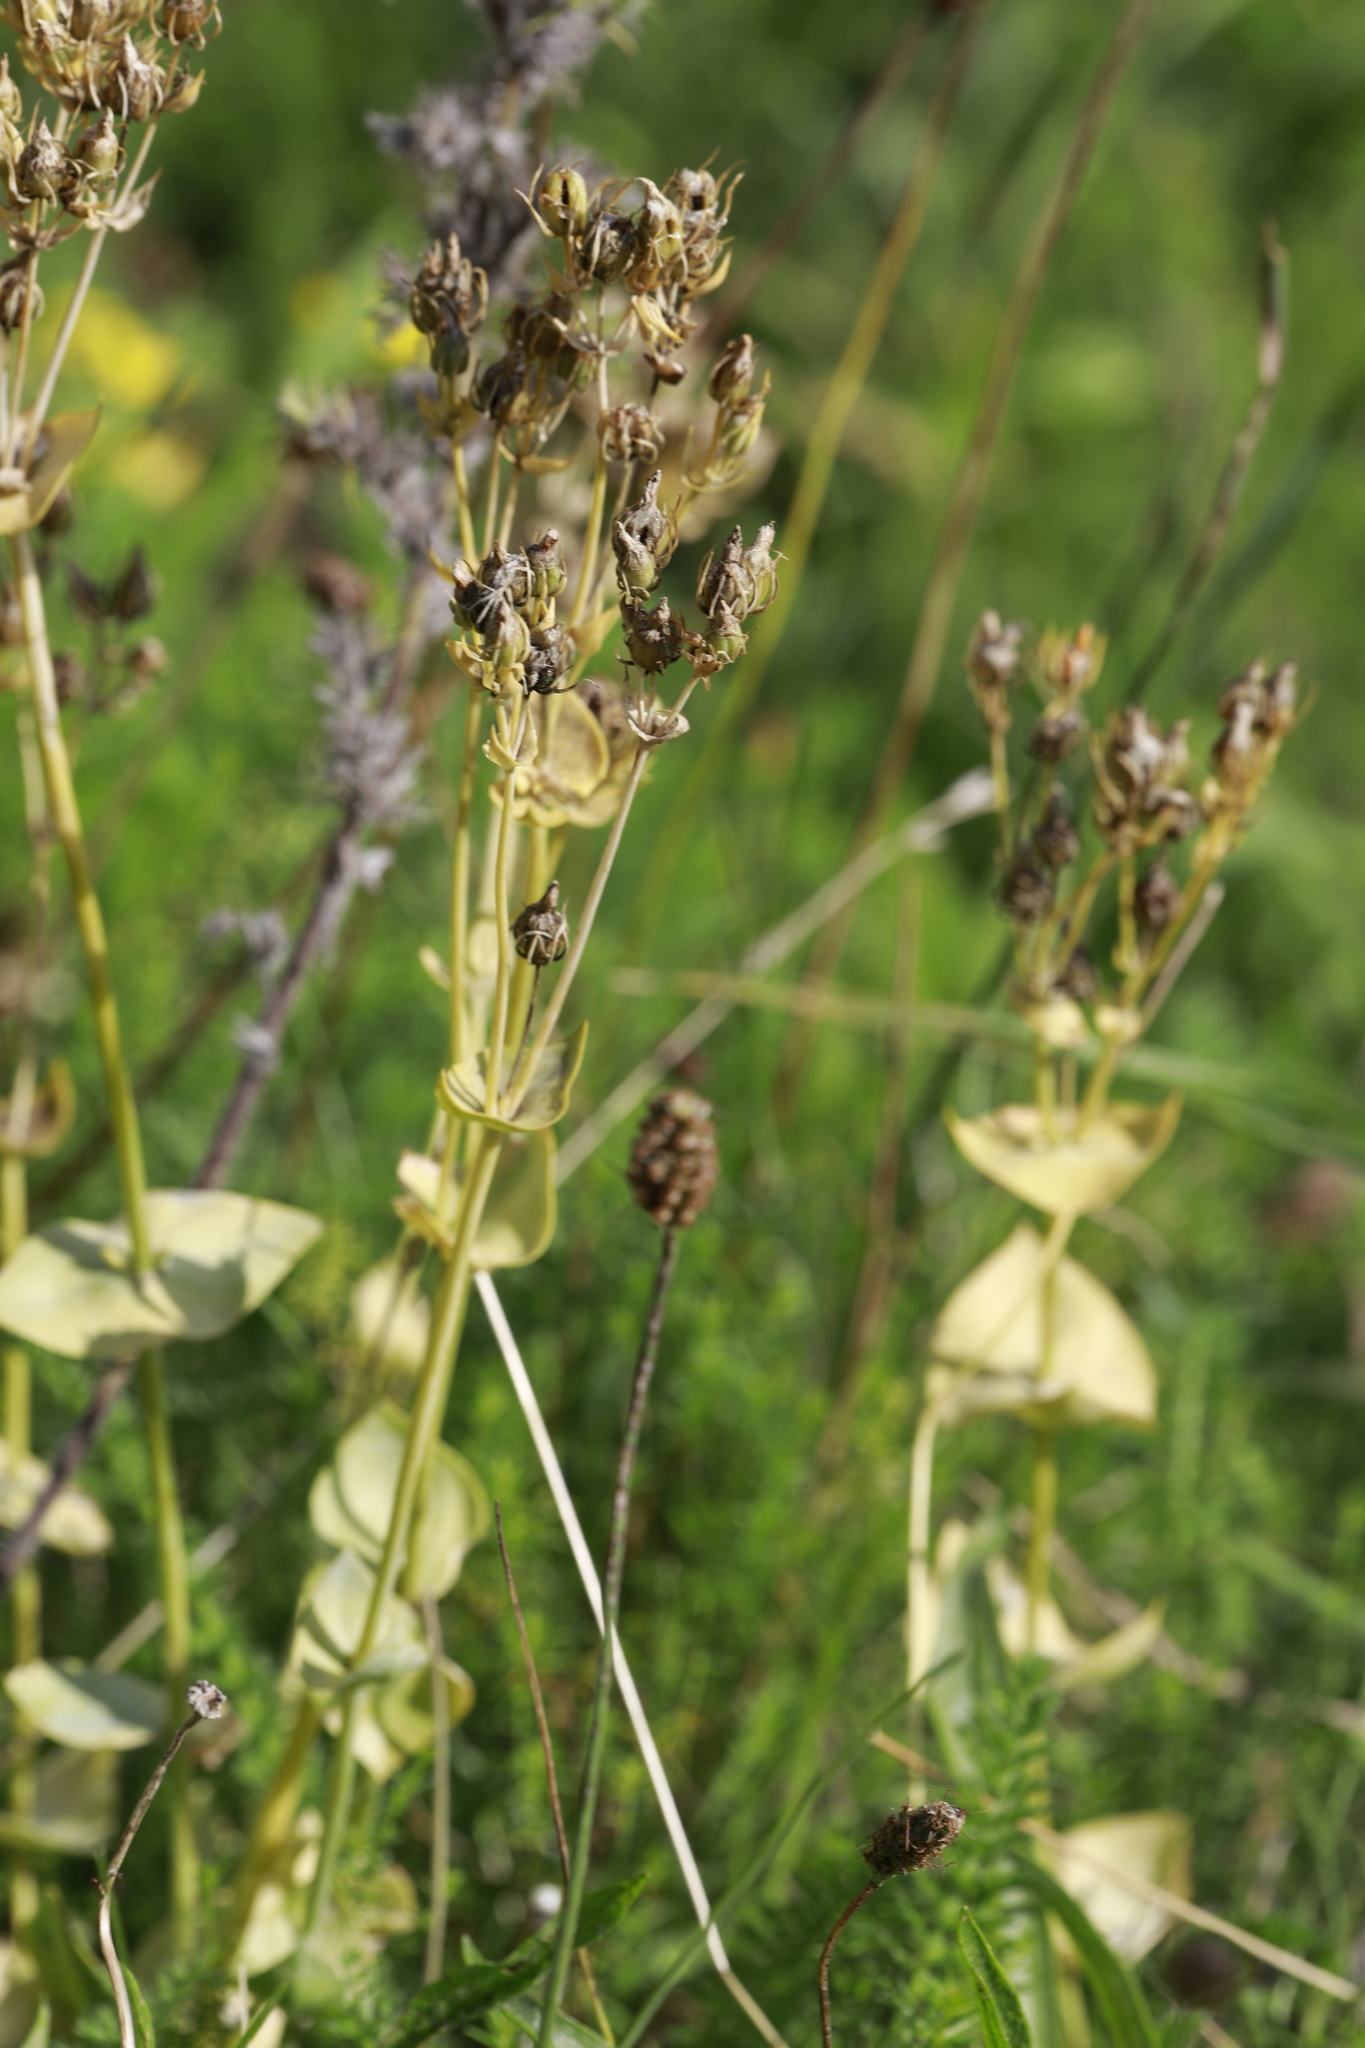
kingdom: Plantae
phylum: Tracheophyta
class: Magnoliopsida
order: Gentianales
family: Gentianaceae
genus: Blackstonia
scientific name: Blackstonia perfoliata
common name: Yellow-wort
